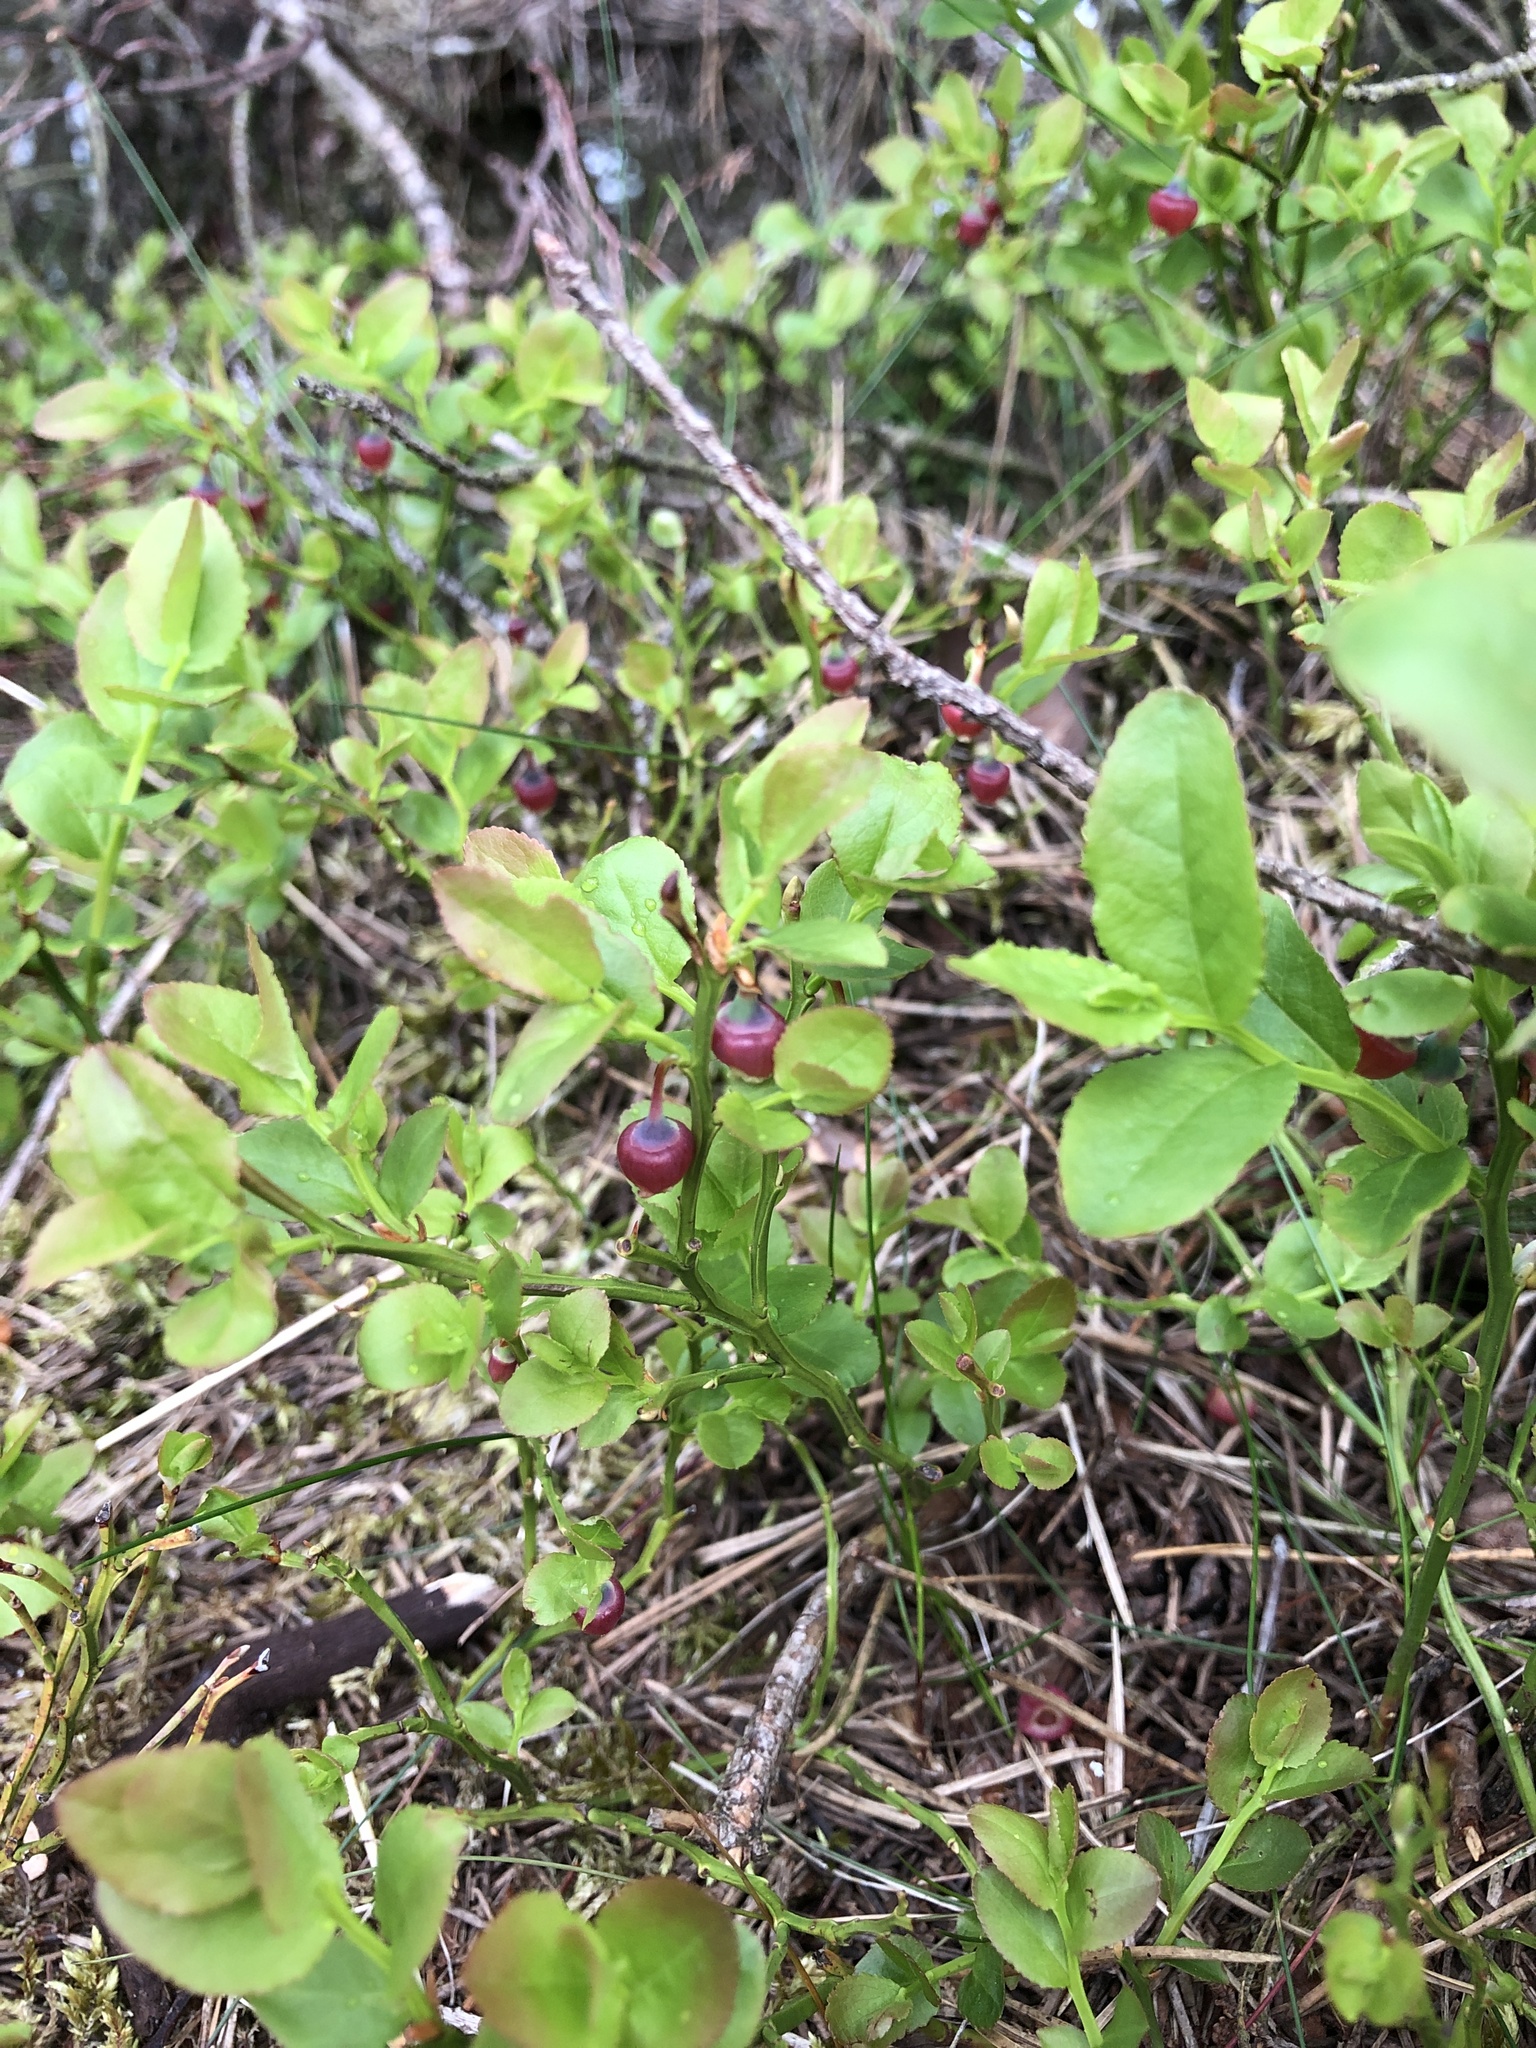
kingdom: Plantae
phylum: Tracheophyta
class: Magnoliopsida
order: Ericales
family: Ericaceae
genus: Vaccinium
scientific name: Vaccinium myrtillus
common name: Bilberry
